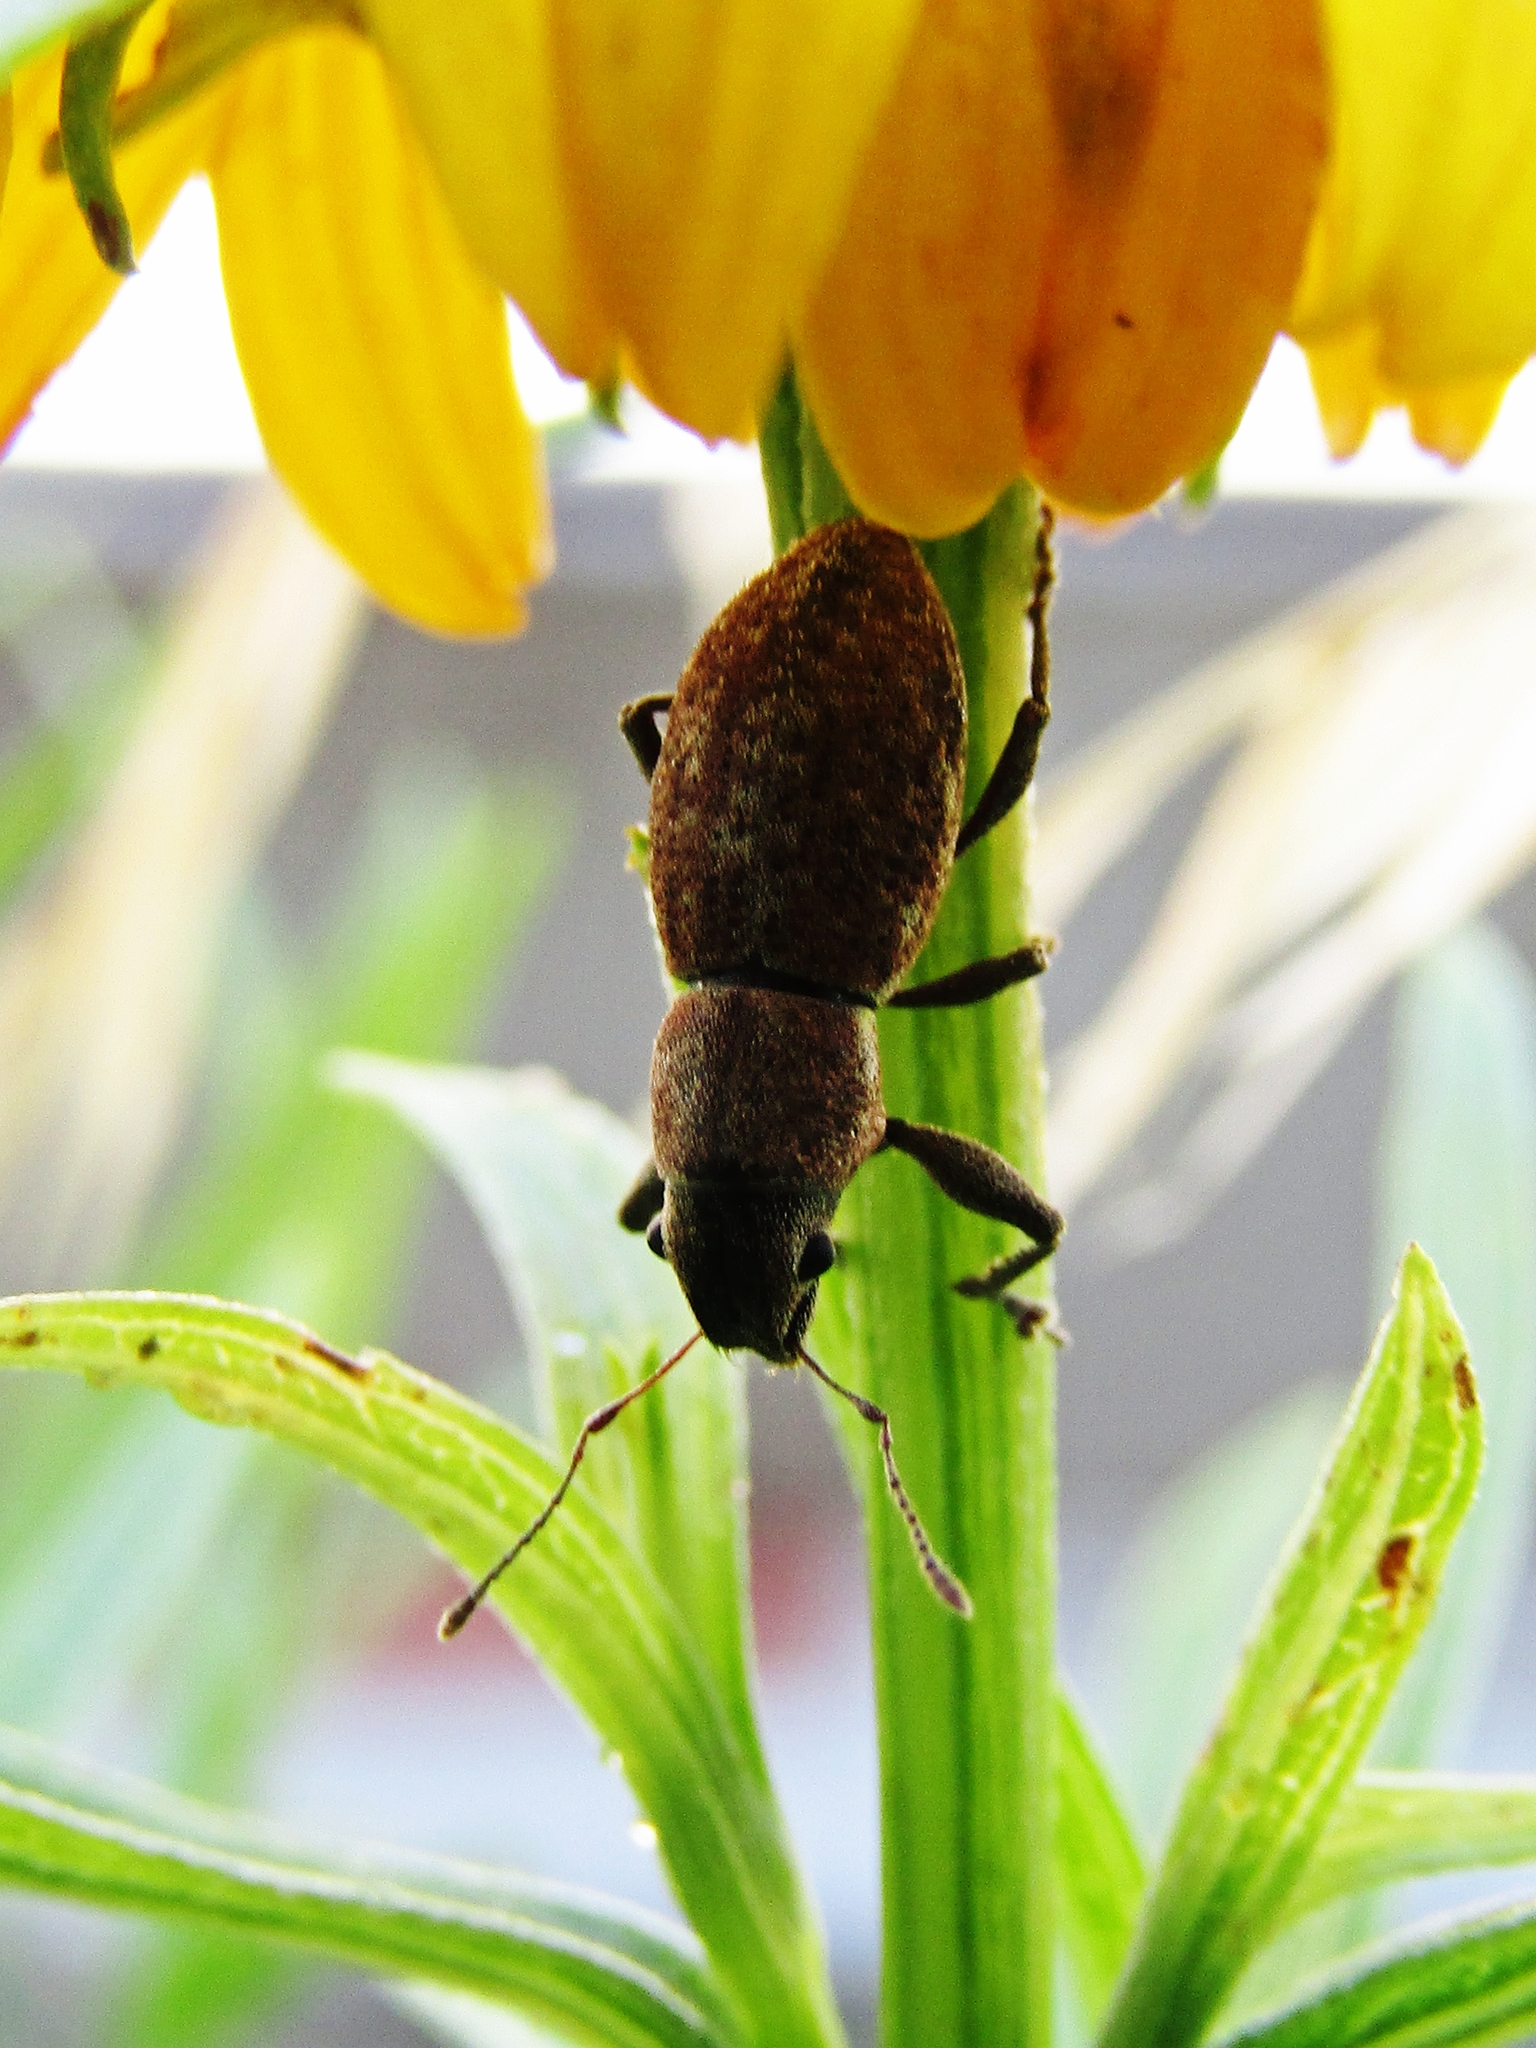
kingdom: Animalia
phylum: Arthropoda
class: Insecta
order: Coleoptera
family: Curculionidae
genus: Naupactus
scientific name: Naupactus cervinus
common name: Fuller rose beetle
